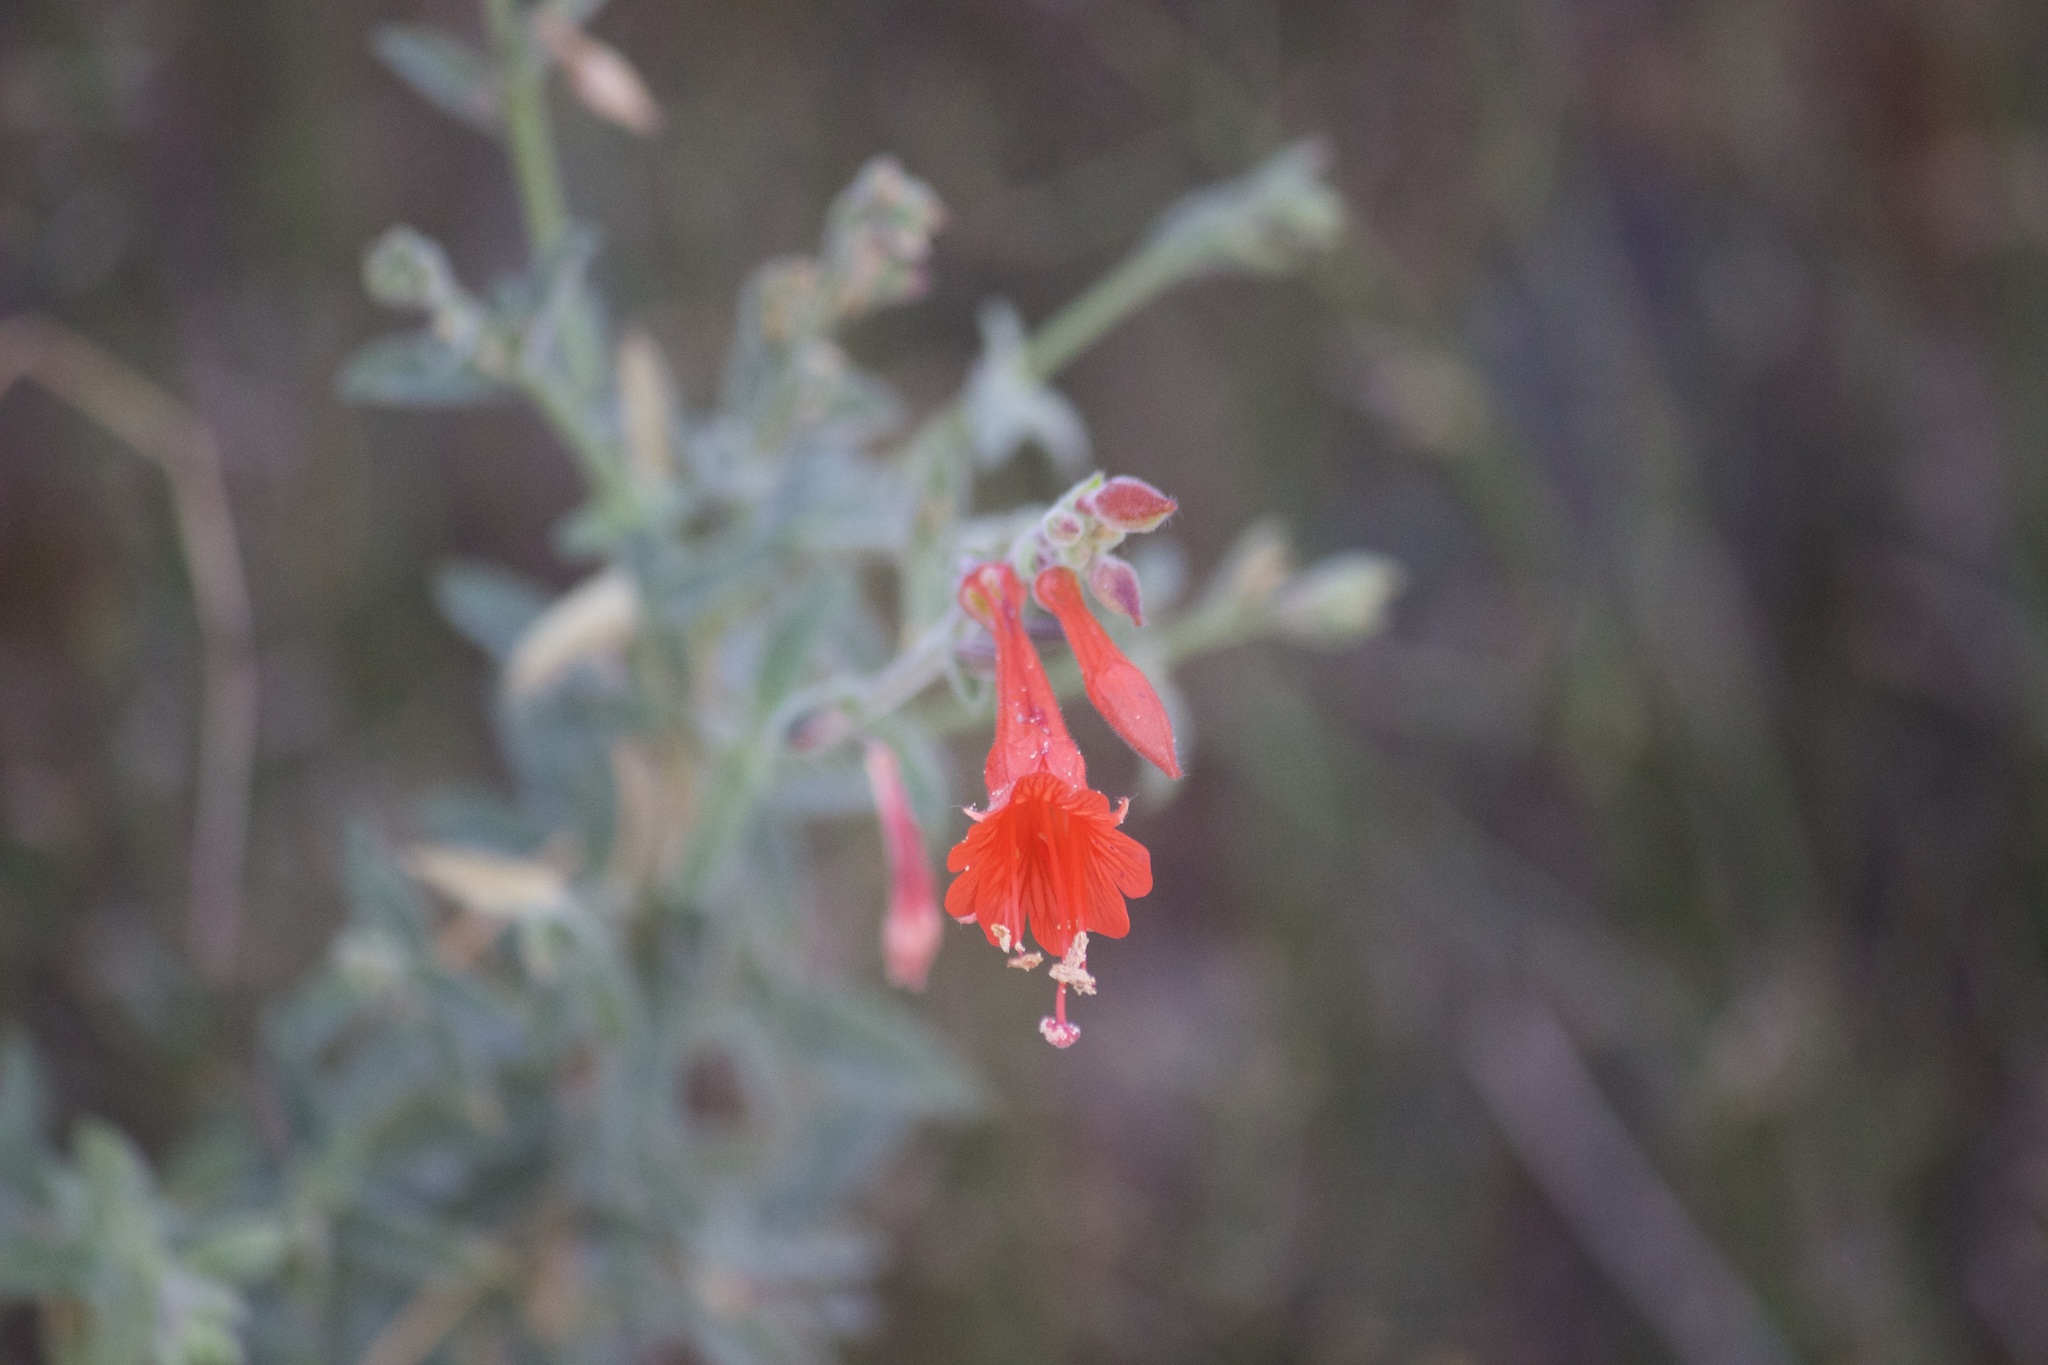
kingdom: Plantae
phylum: Tracheophyta
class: Magnoliopsida
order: Myrtales
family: Onagraceae
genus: Epilobium
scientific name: Epilobium canum
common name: California-fuchsia
